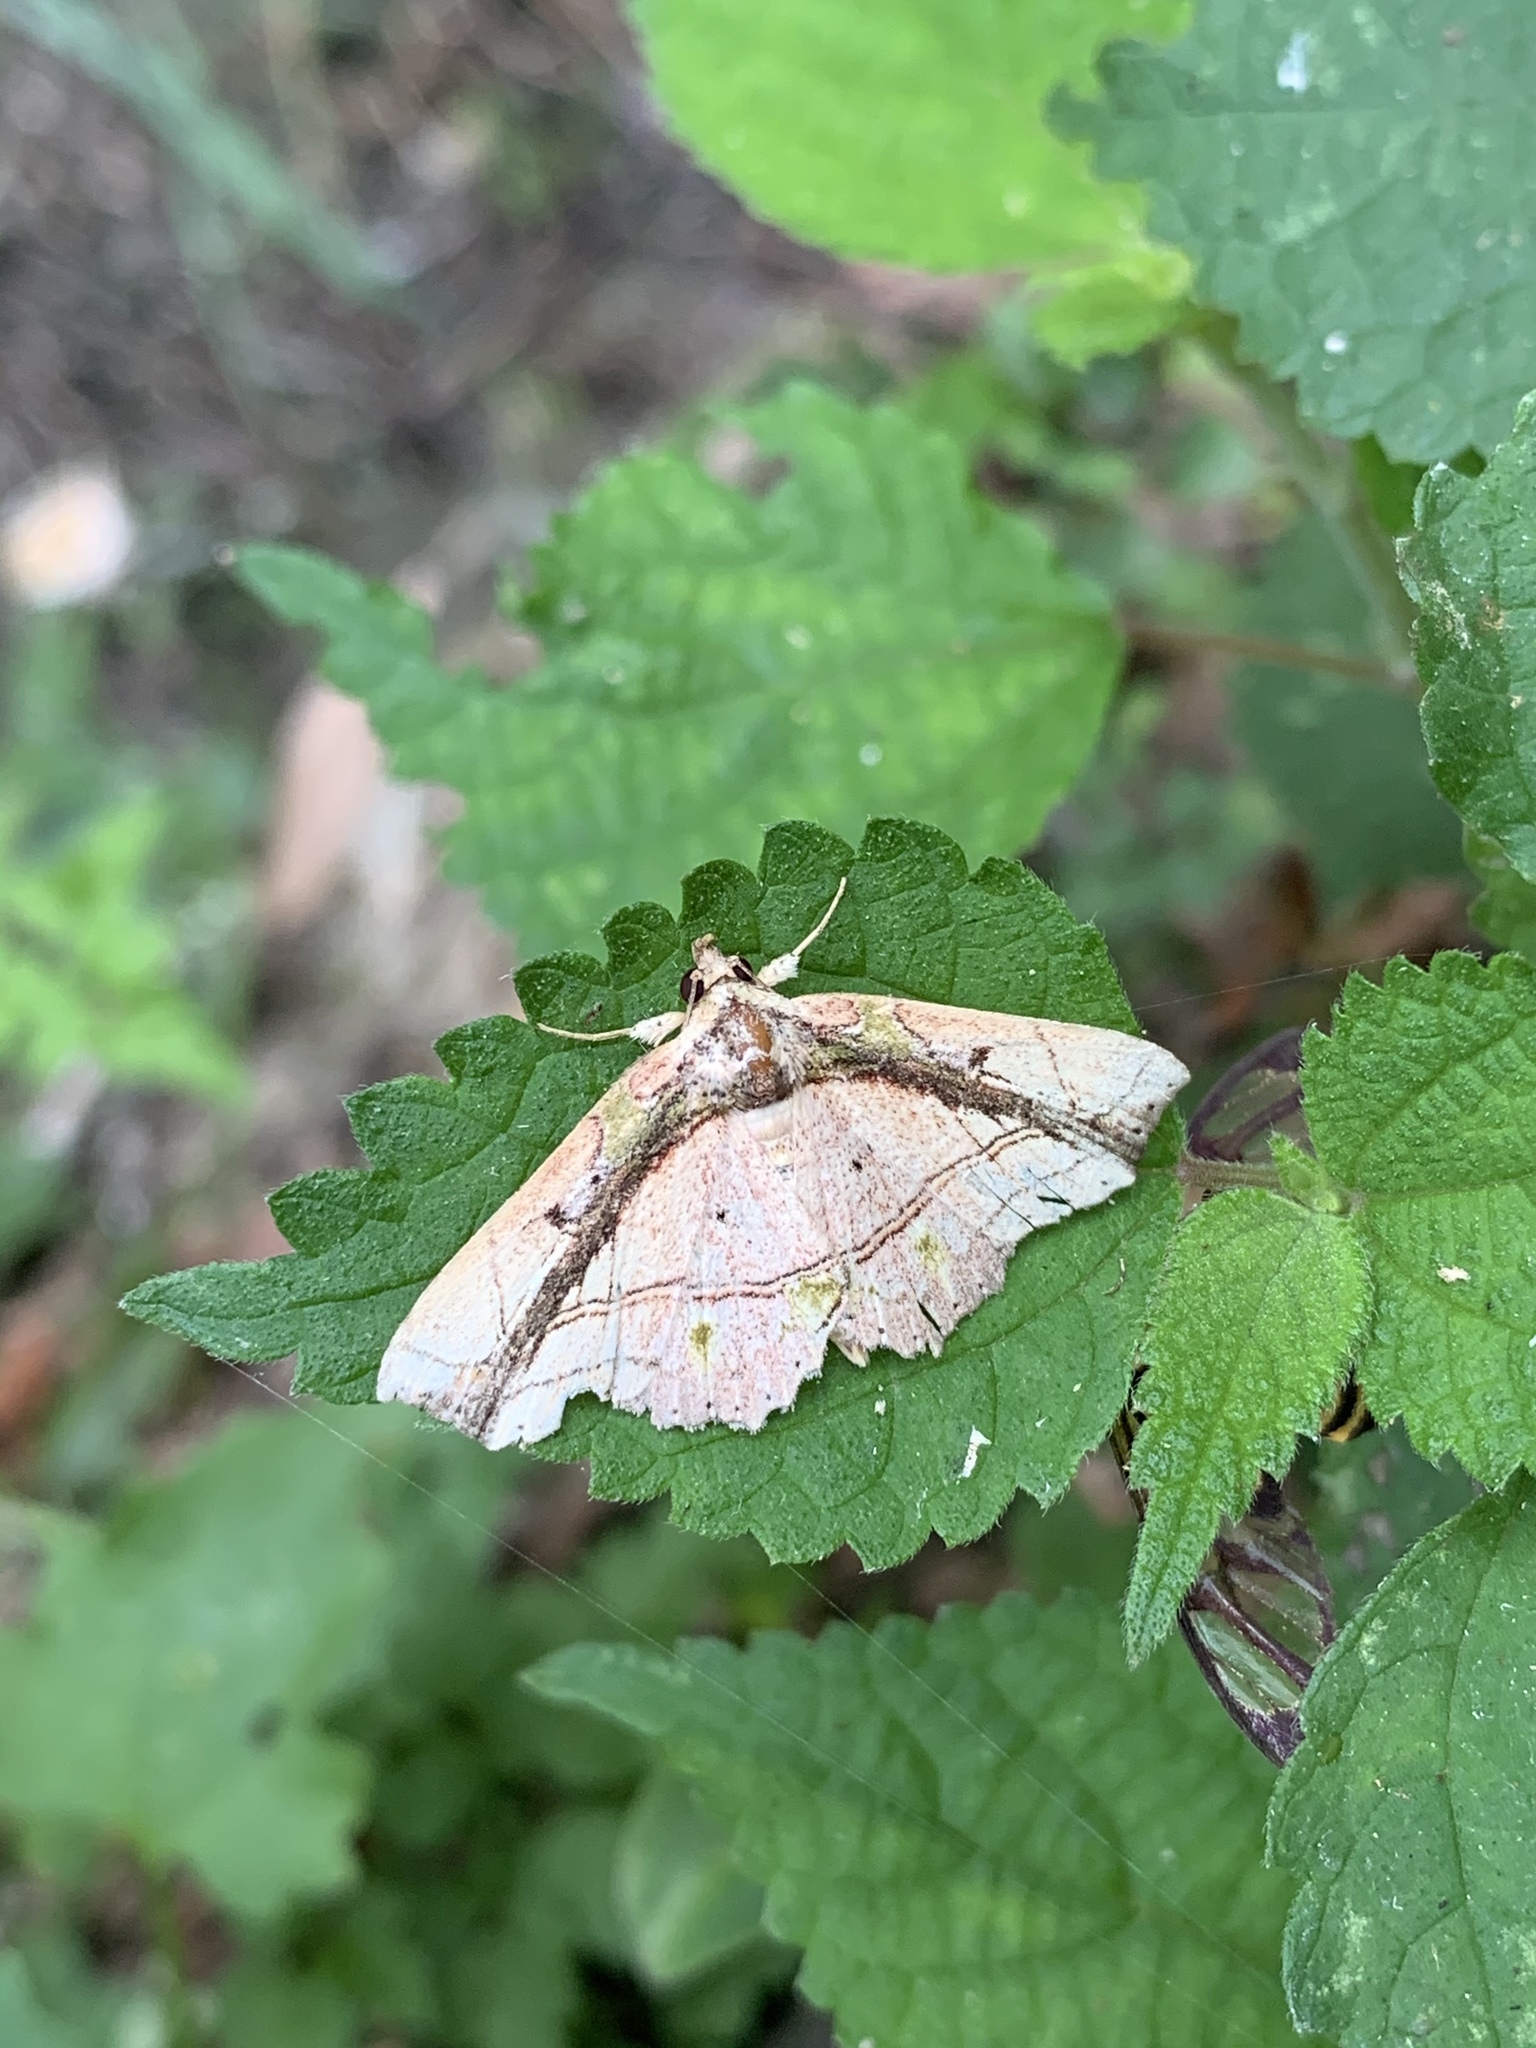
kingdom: Animalia
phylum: Arthropoda
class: Insecta
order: Lepidoptera
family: Erebidae
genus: Tamba
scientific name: Tamba lala
